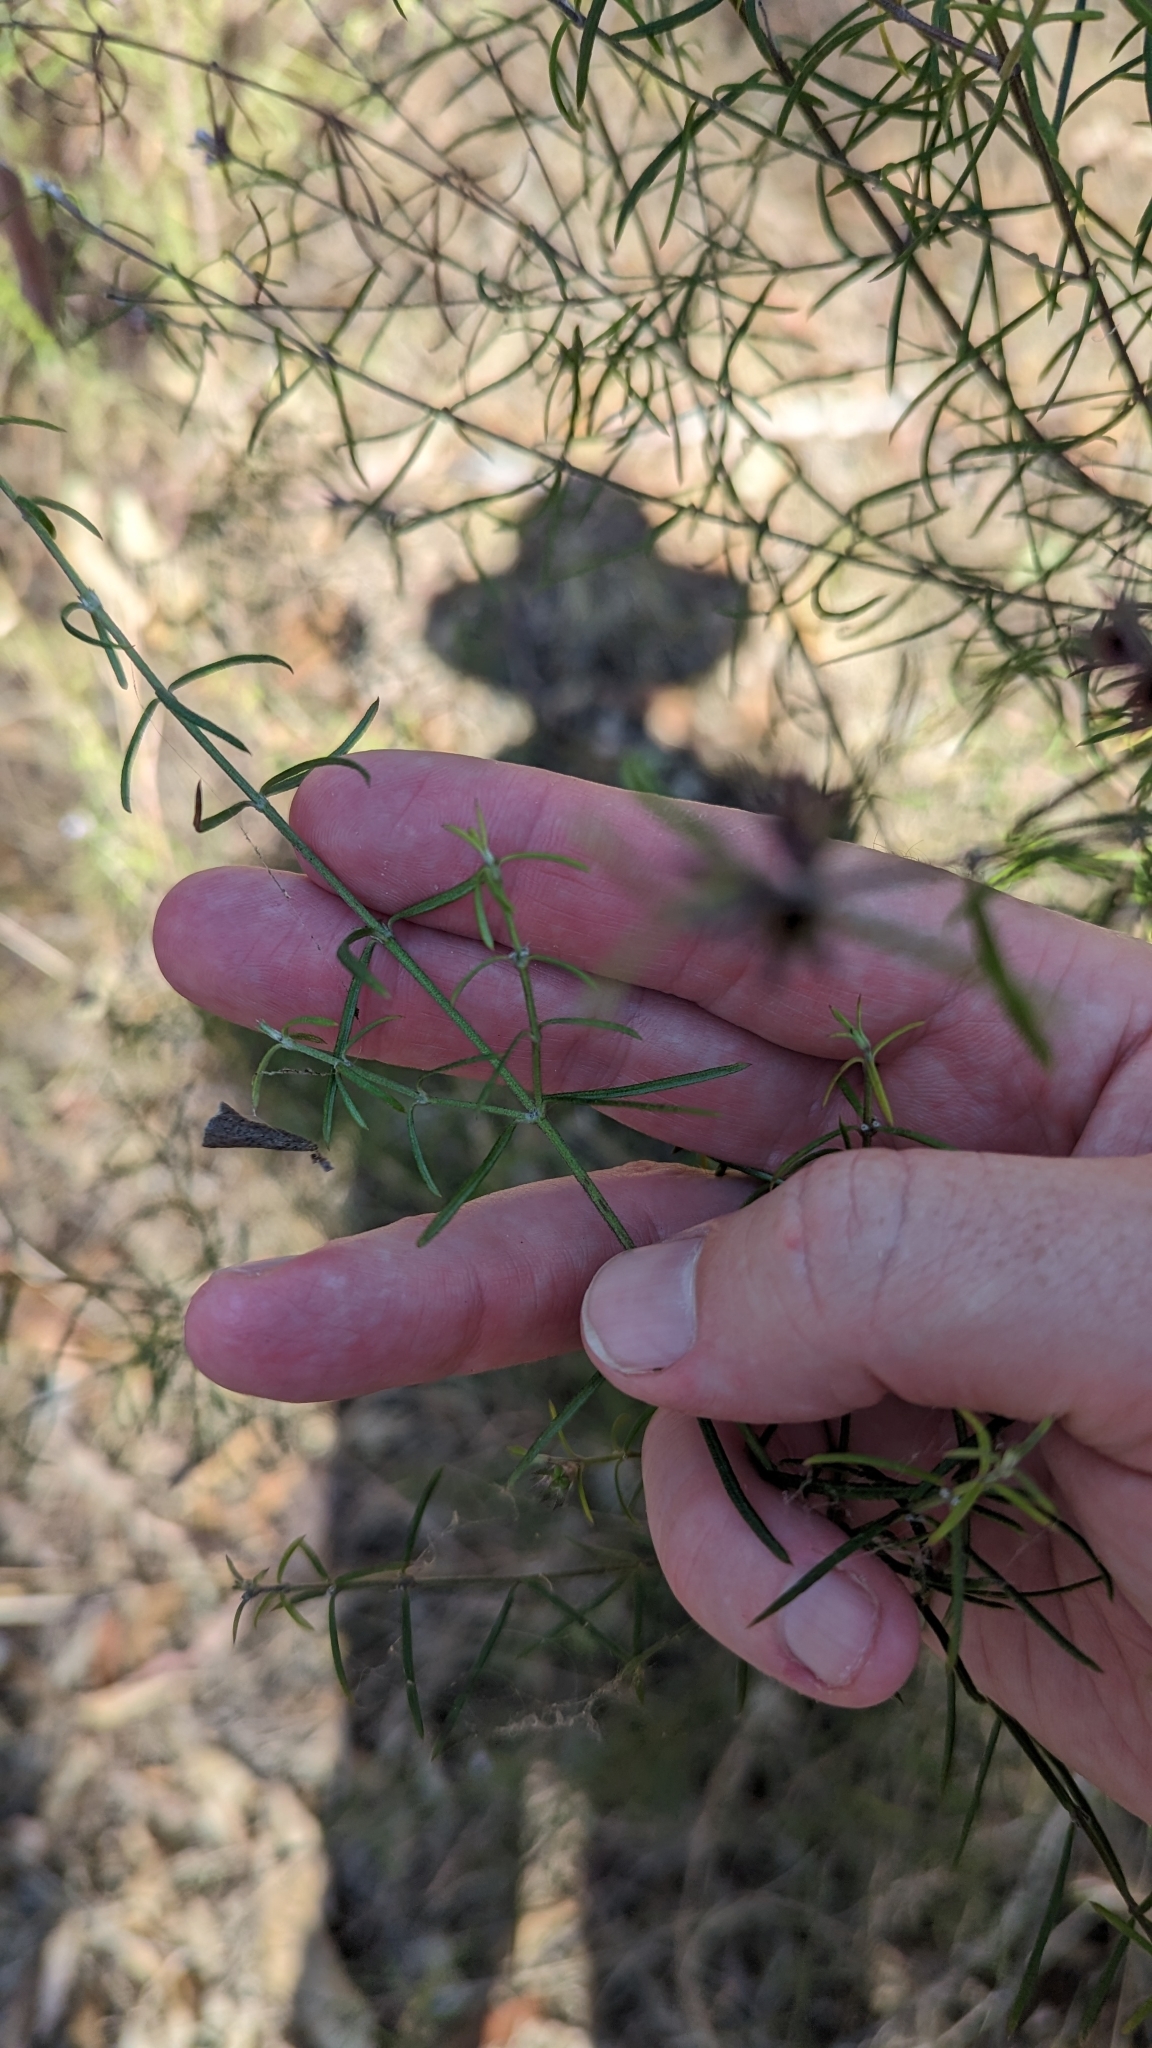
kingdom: Plantae
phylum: Tracheophyta
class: Magnoliopsida
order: Lamiales
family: Lamiaceae
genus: Westringia
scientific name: Westringia eremicola
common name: Slender western-rosemary
